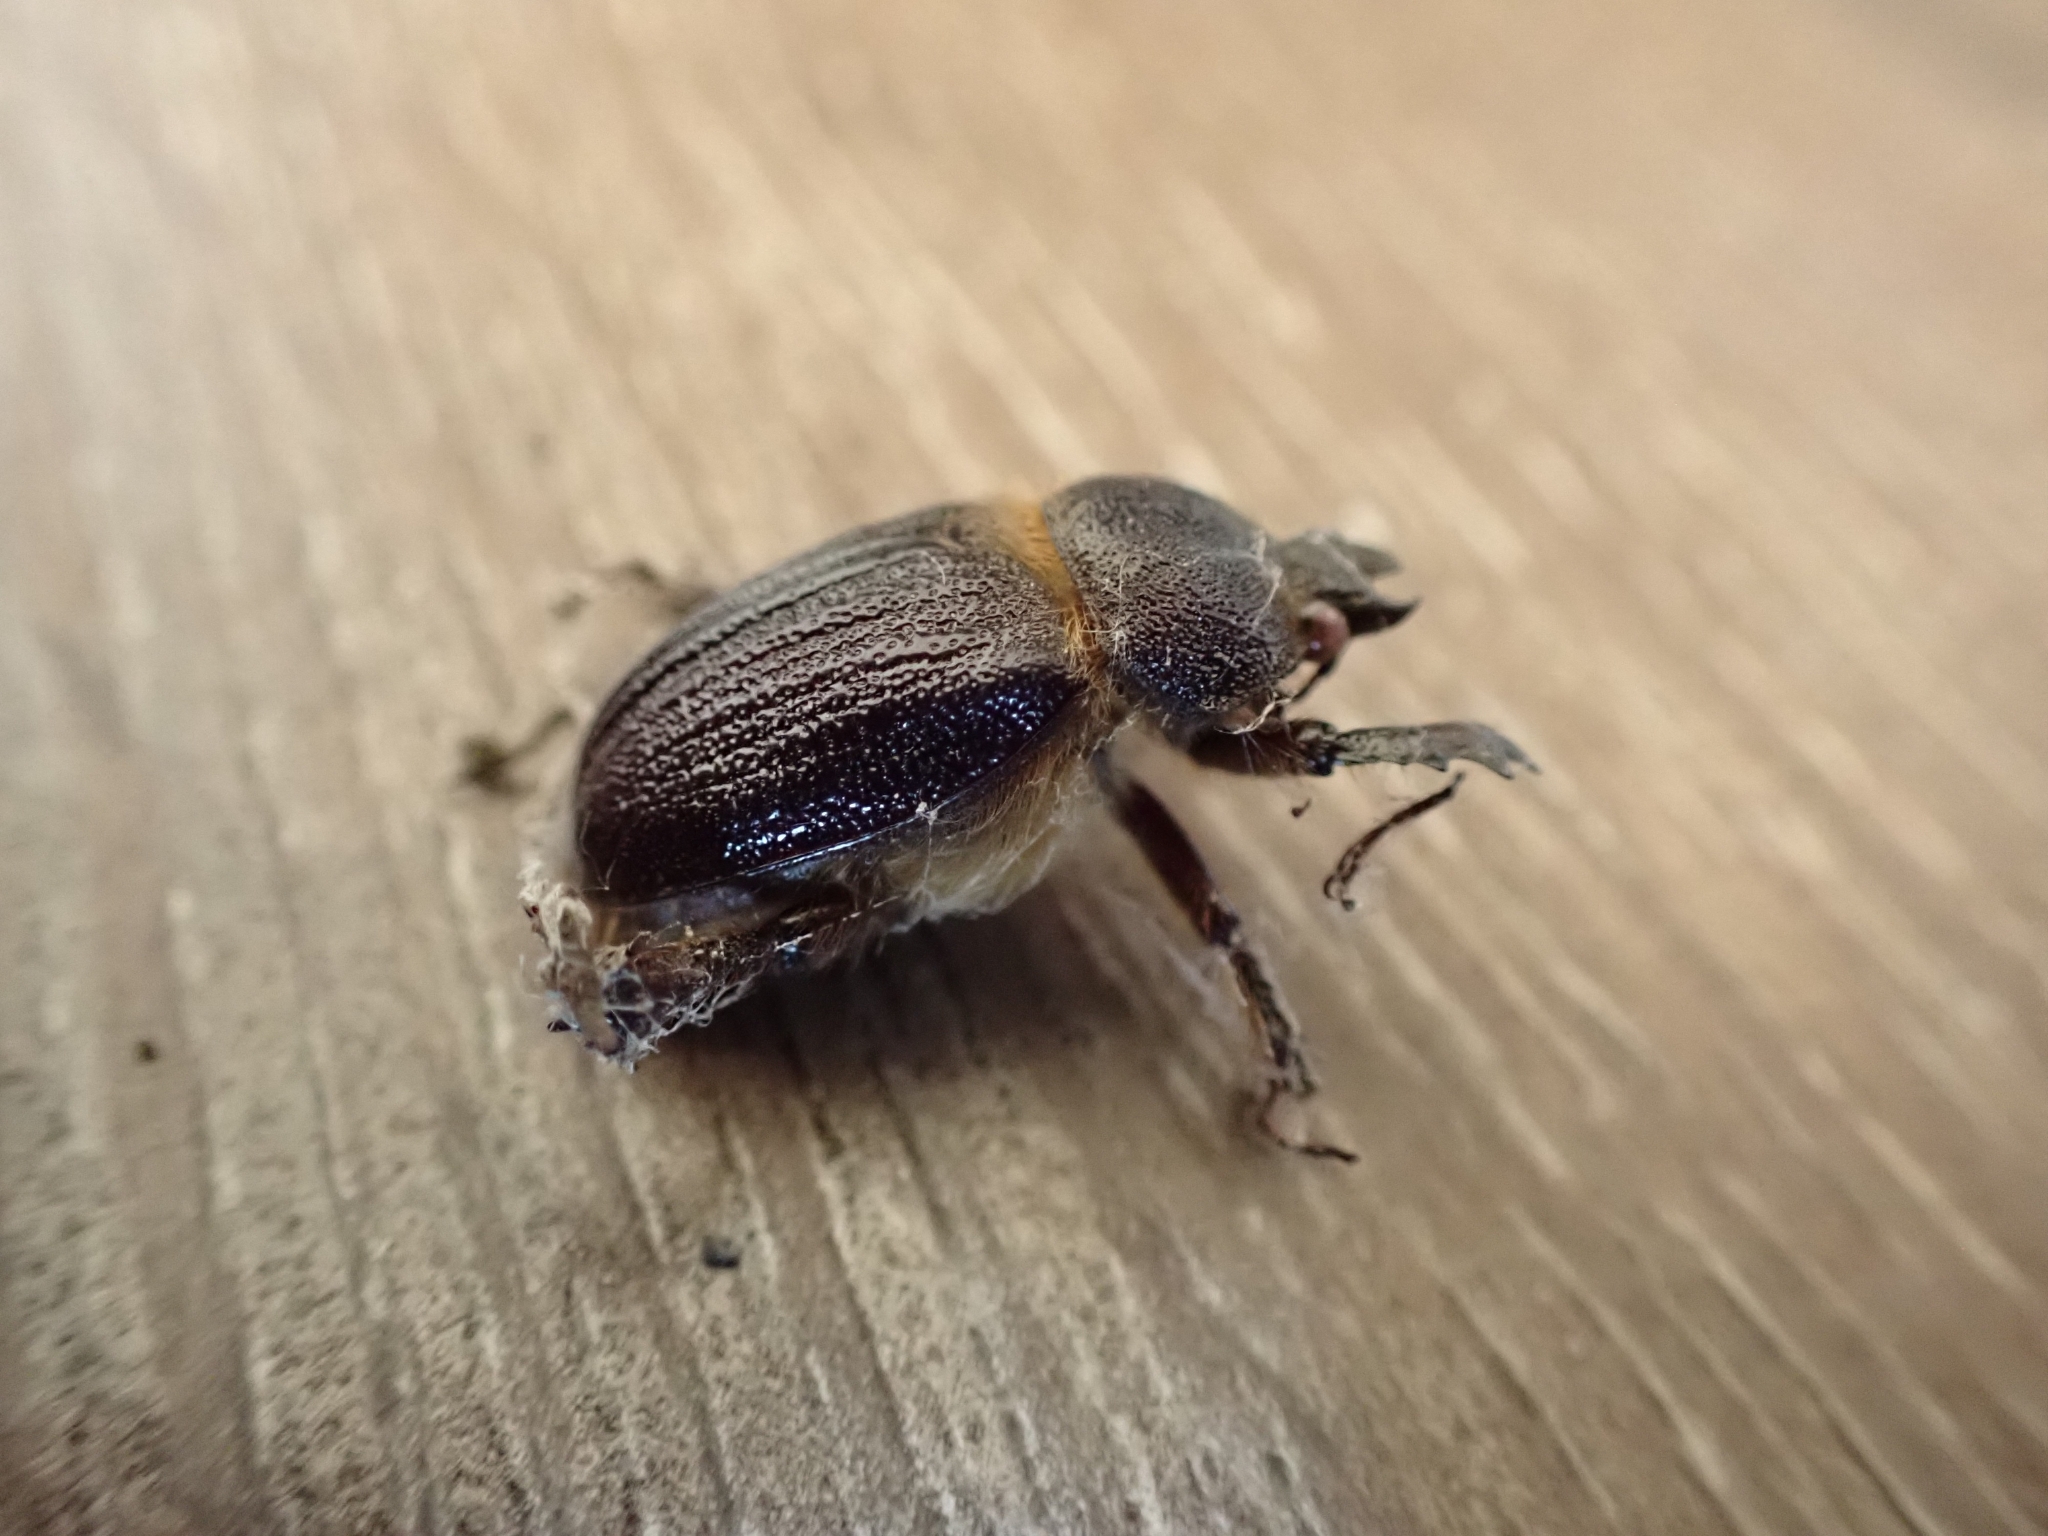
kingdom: Animalia
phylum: Arthropoda
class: Insecta
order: Coleoptera
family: Lucanidae
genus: Dendroblax
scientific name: Dendroblax earlii
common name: Earl's stag beetle
